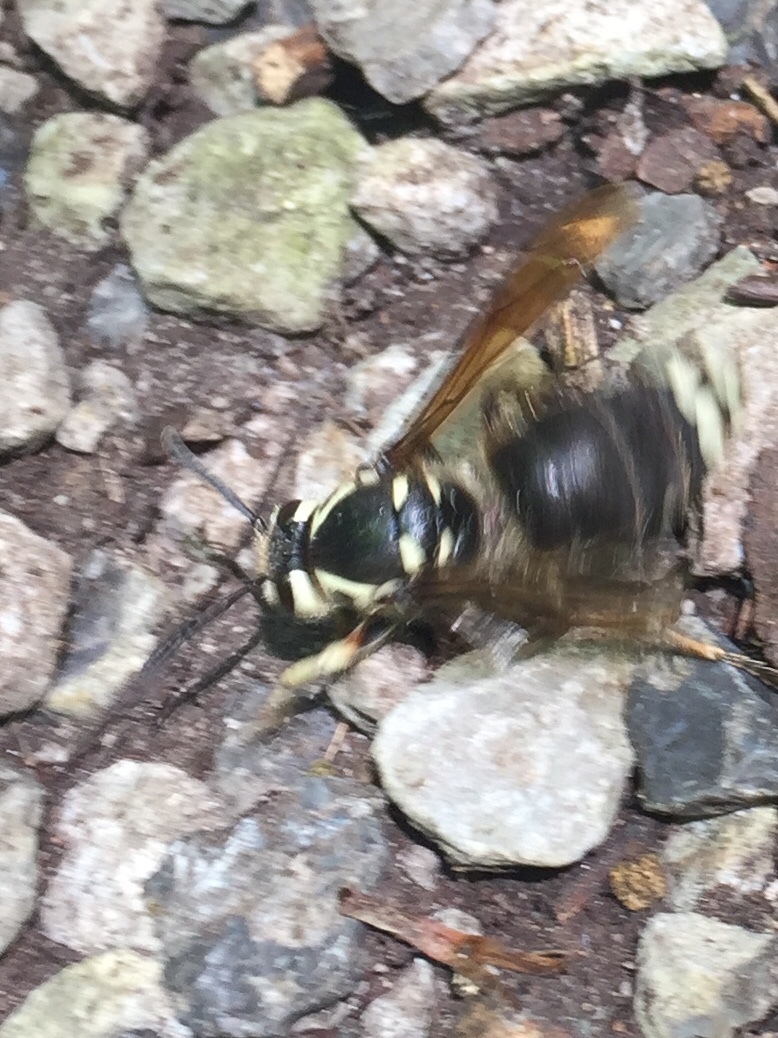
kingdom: Animalia
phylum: Arthropoda
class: Insecta
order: Hymenoptera
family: Vespidae
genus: Dolichovespula
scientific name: Dolichovespula maculata
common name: Bald-faced hornet
